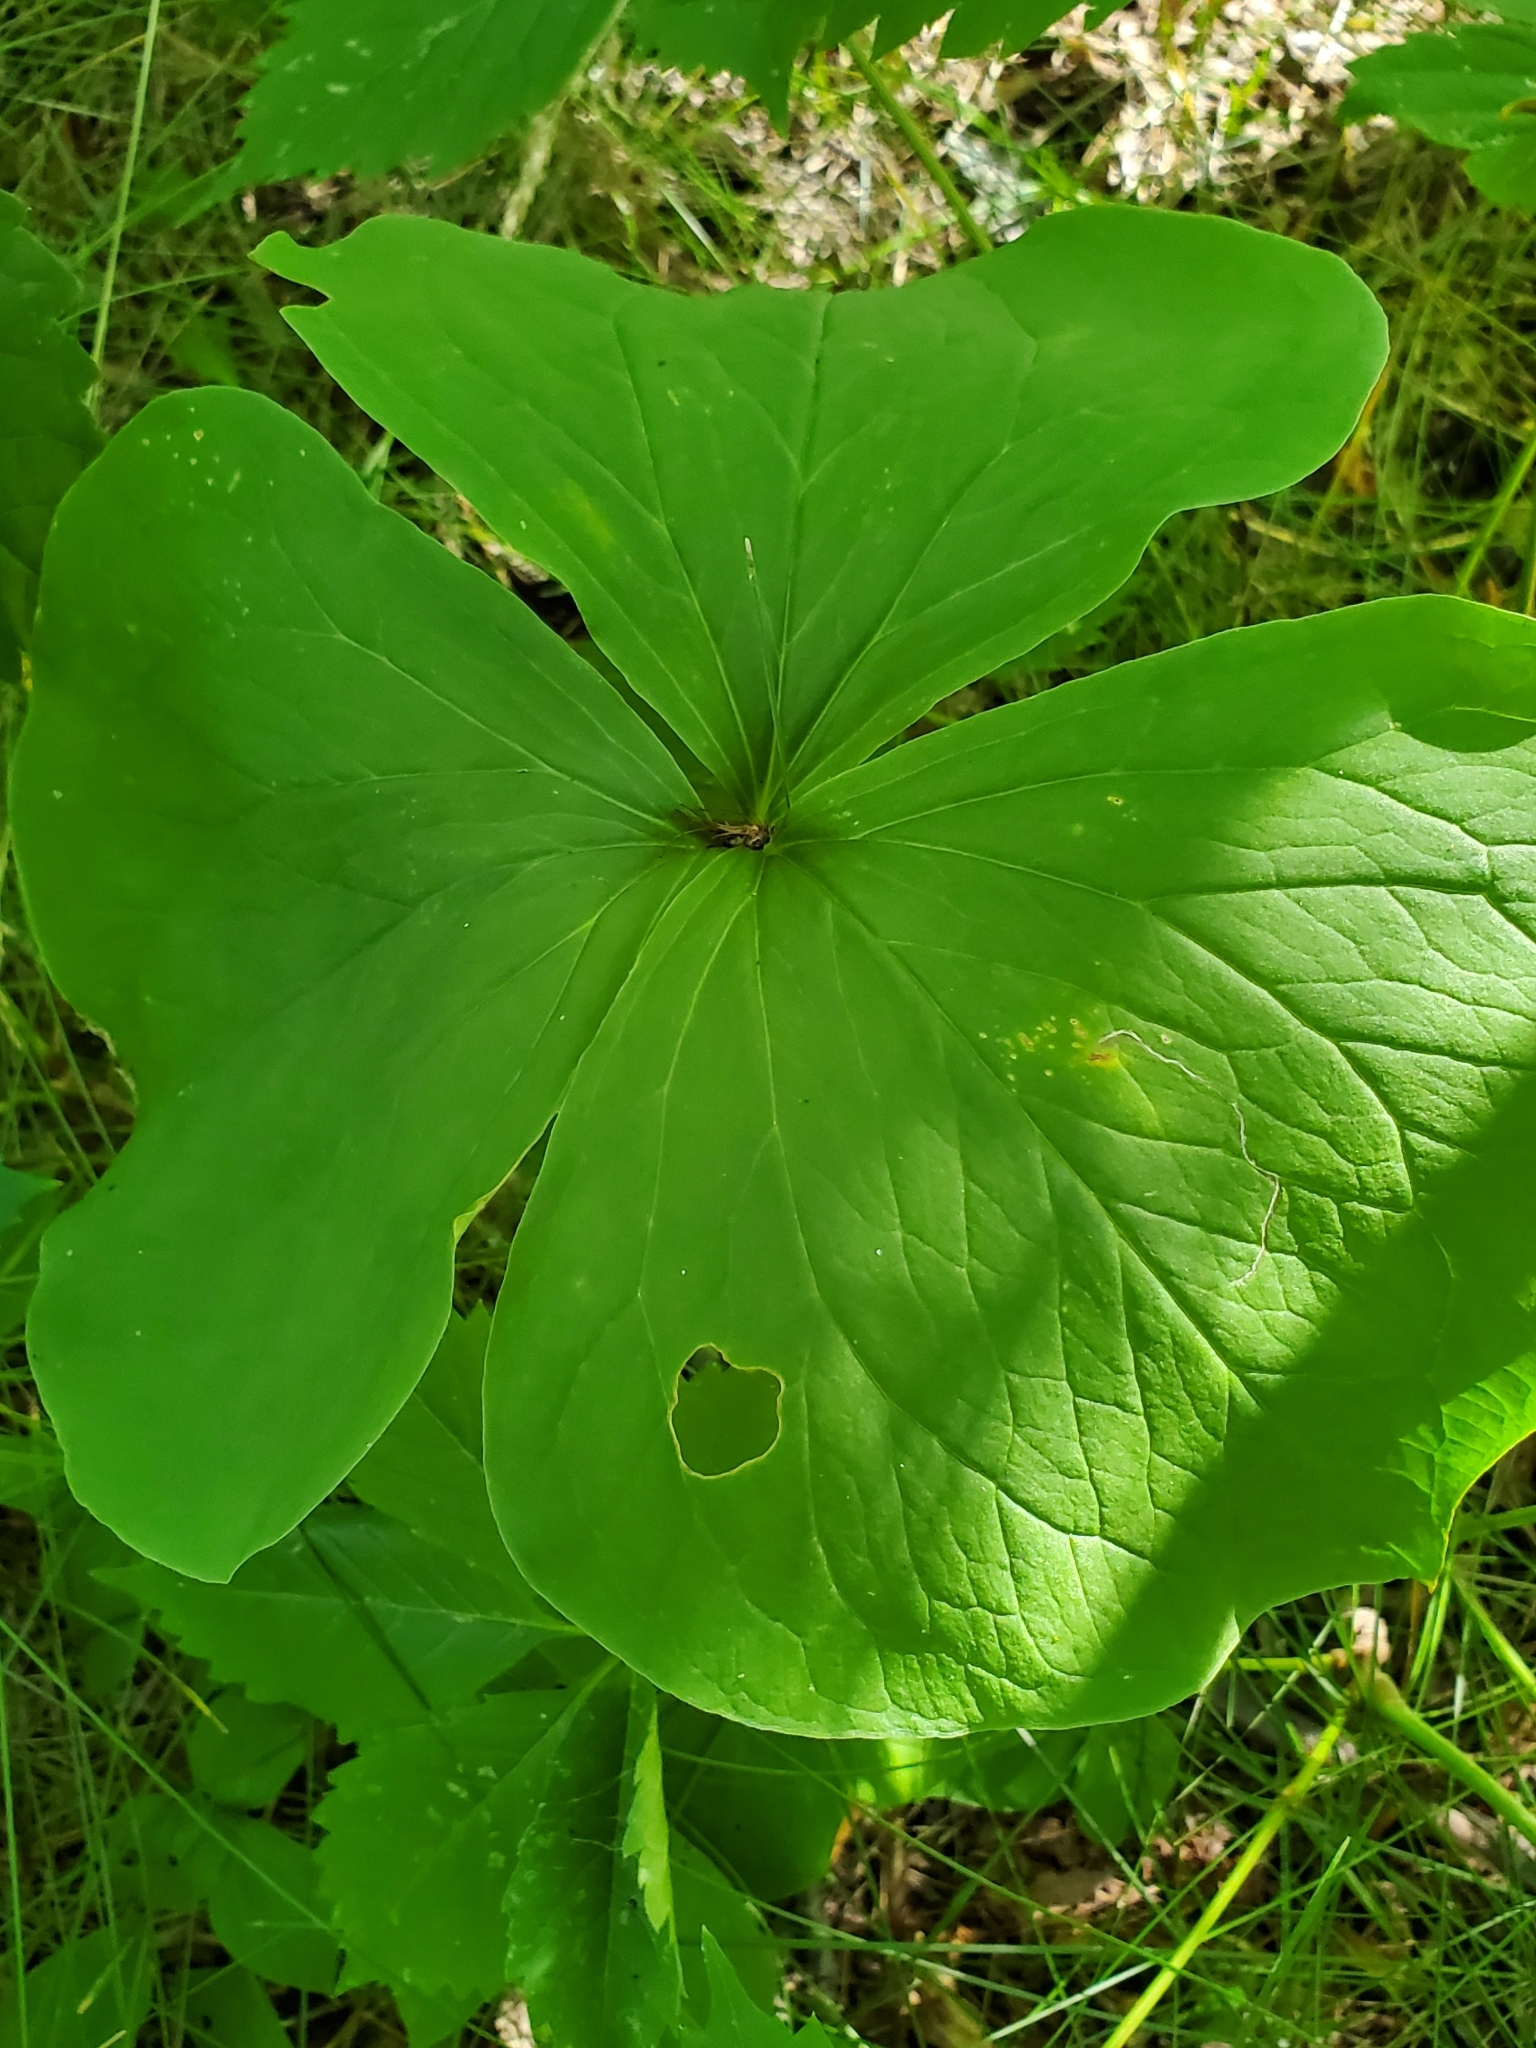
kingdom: Plantae
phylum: Tracheophyta
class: Liliopsida
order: Liliales
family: Melanthiaceae
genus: Trillium
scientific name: Trillium cernuum
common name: Nodding trillium
